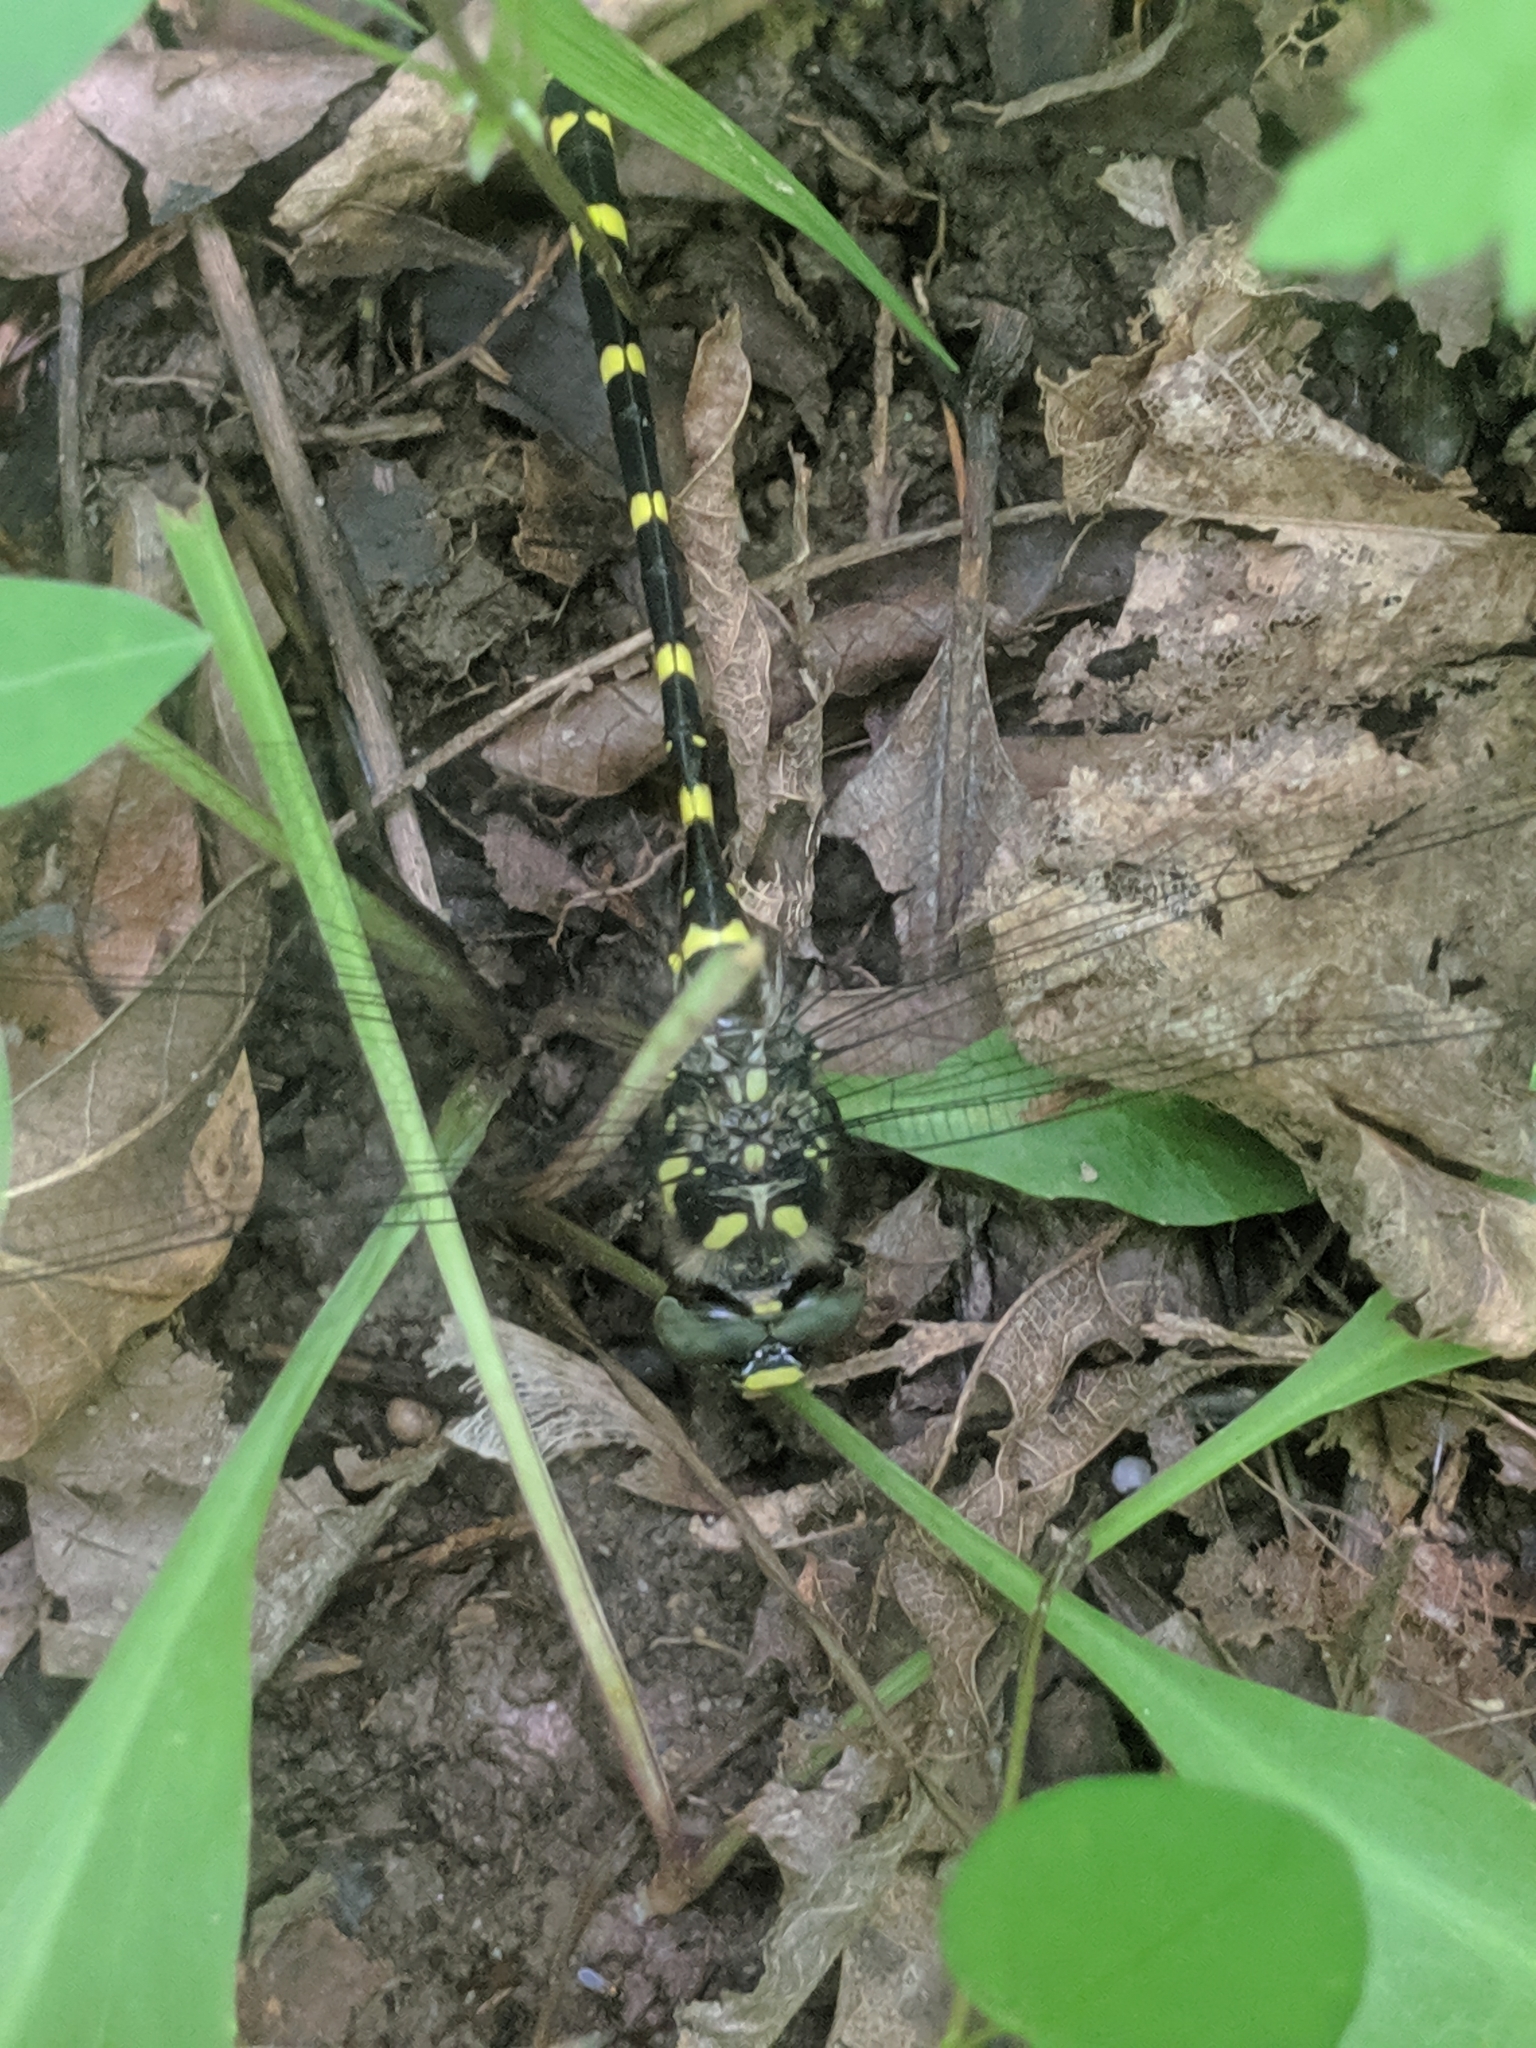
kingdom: Animalia
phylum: Arthropoda
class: Insecta
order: Odonata
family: Cordulegastridae
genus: Cordulegaster
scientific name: Cordulegaster erronea
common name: Tiger spiketail
